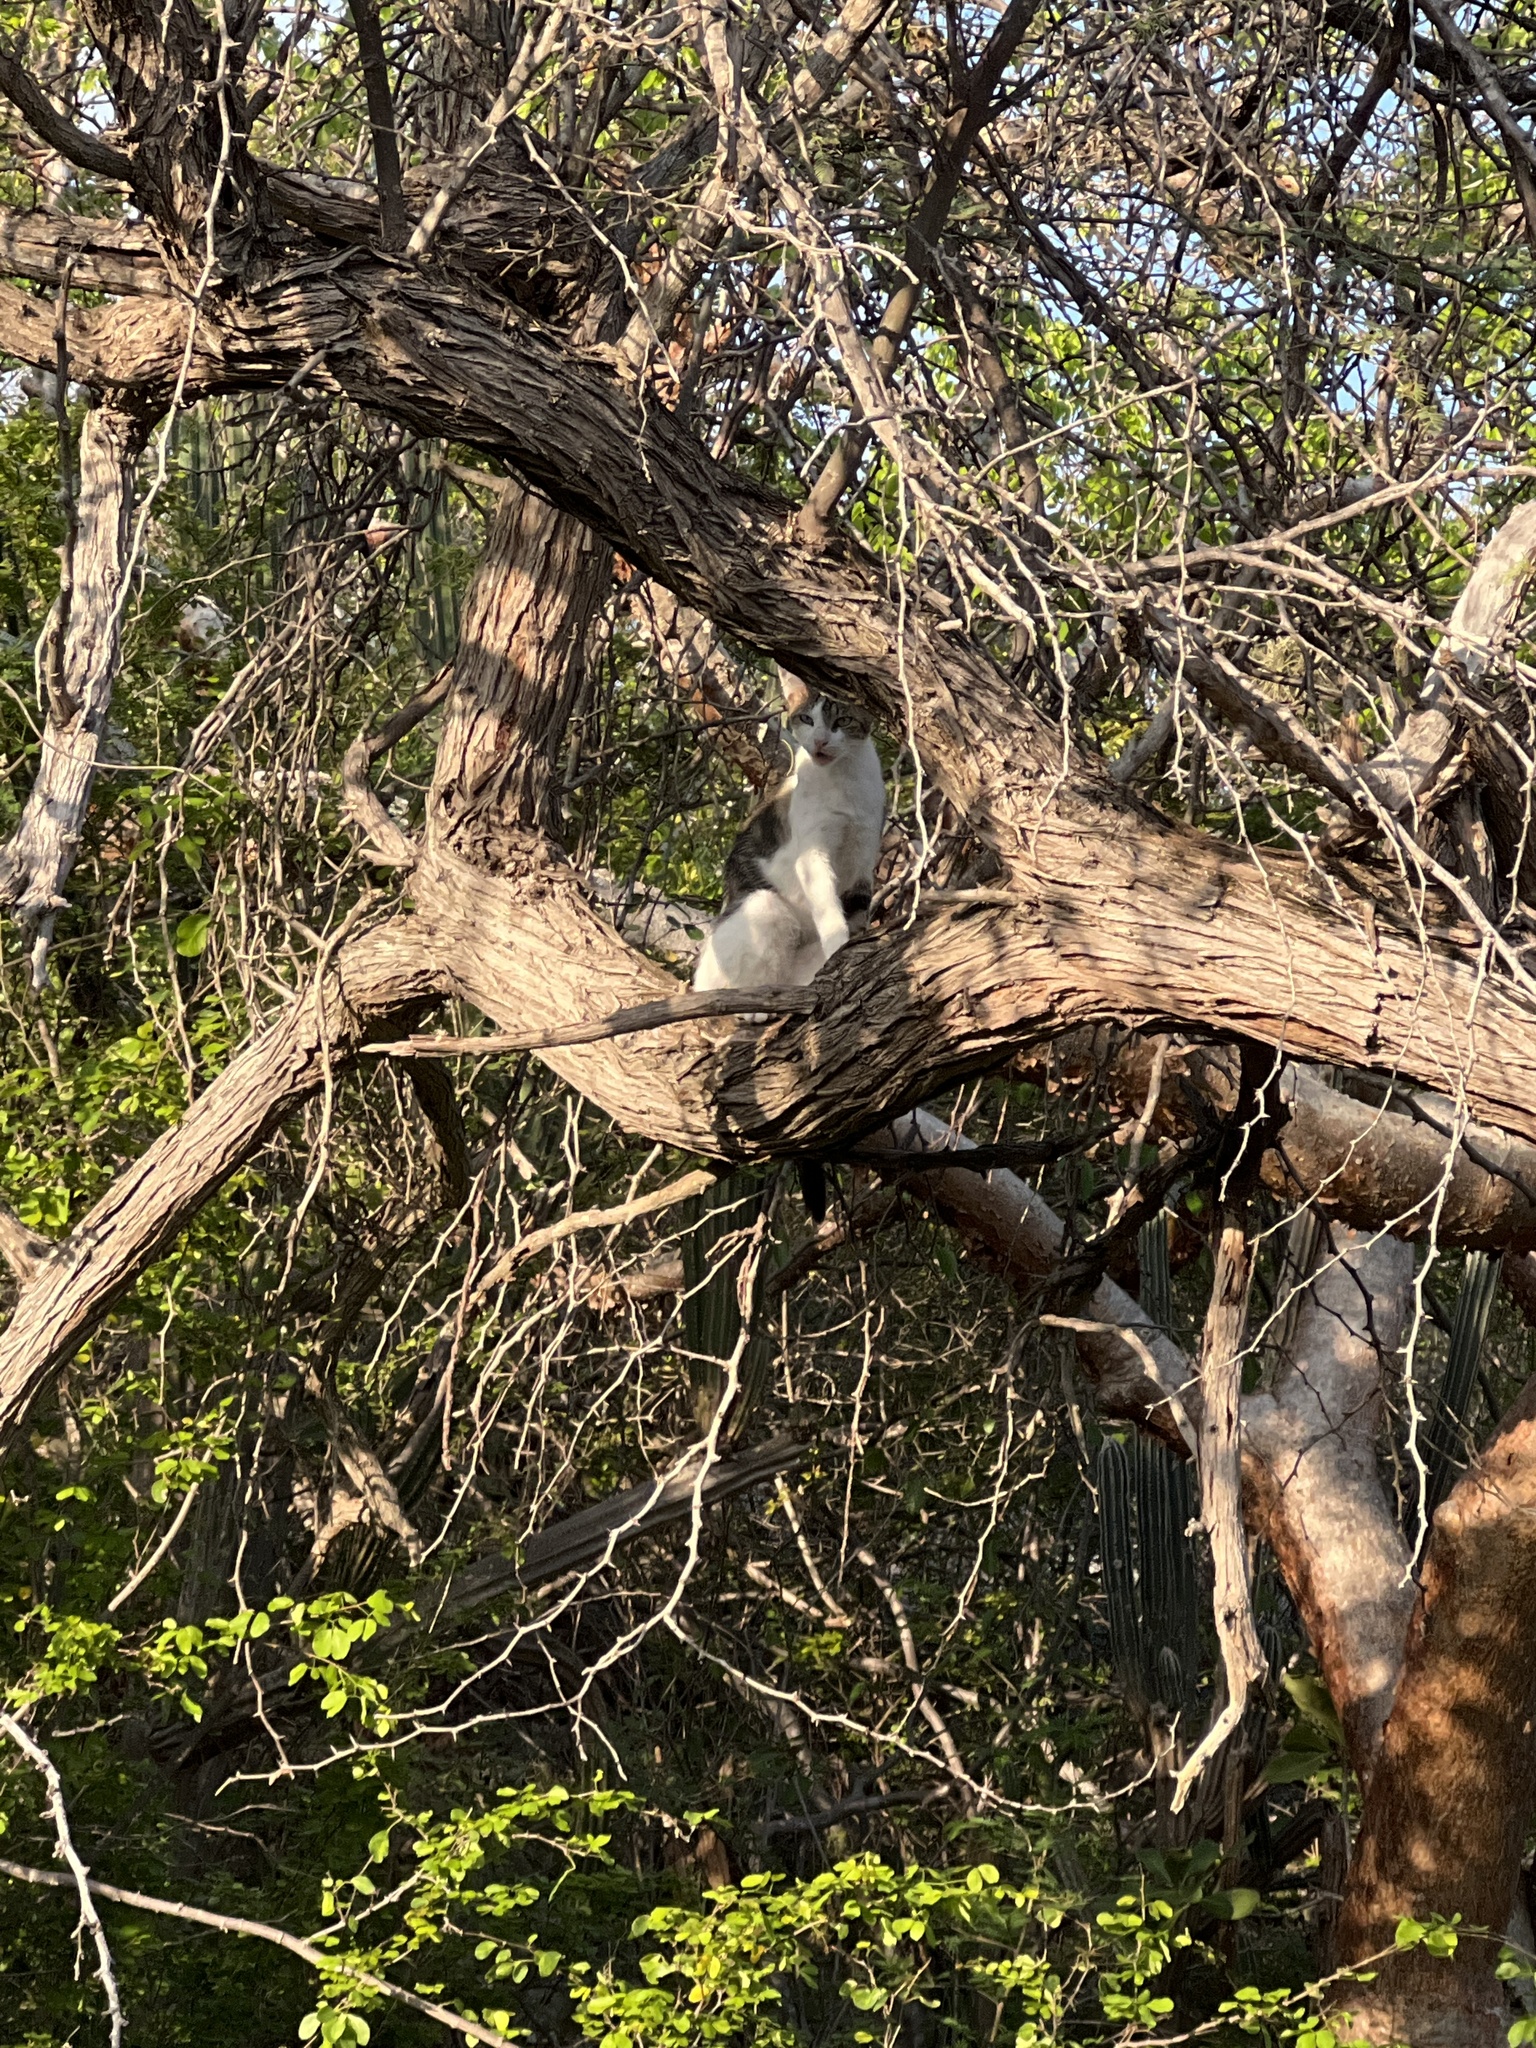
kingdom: Animalia
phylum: Chordata
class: Mammalia
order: Carnivora
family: Felidae
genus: Felis
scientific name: Felis catus
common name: Domestic cat
